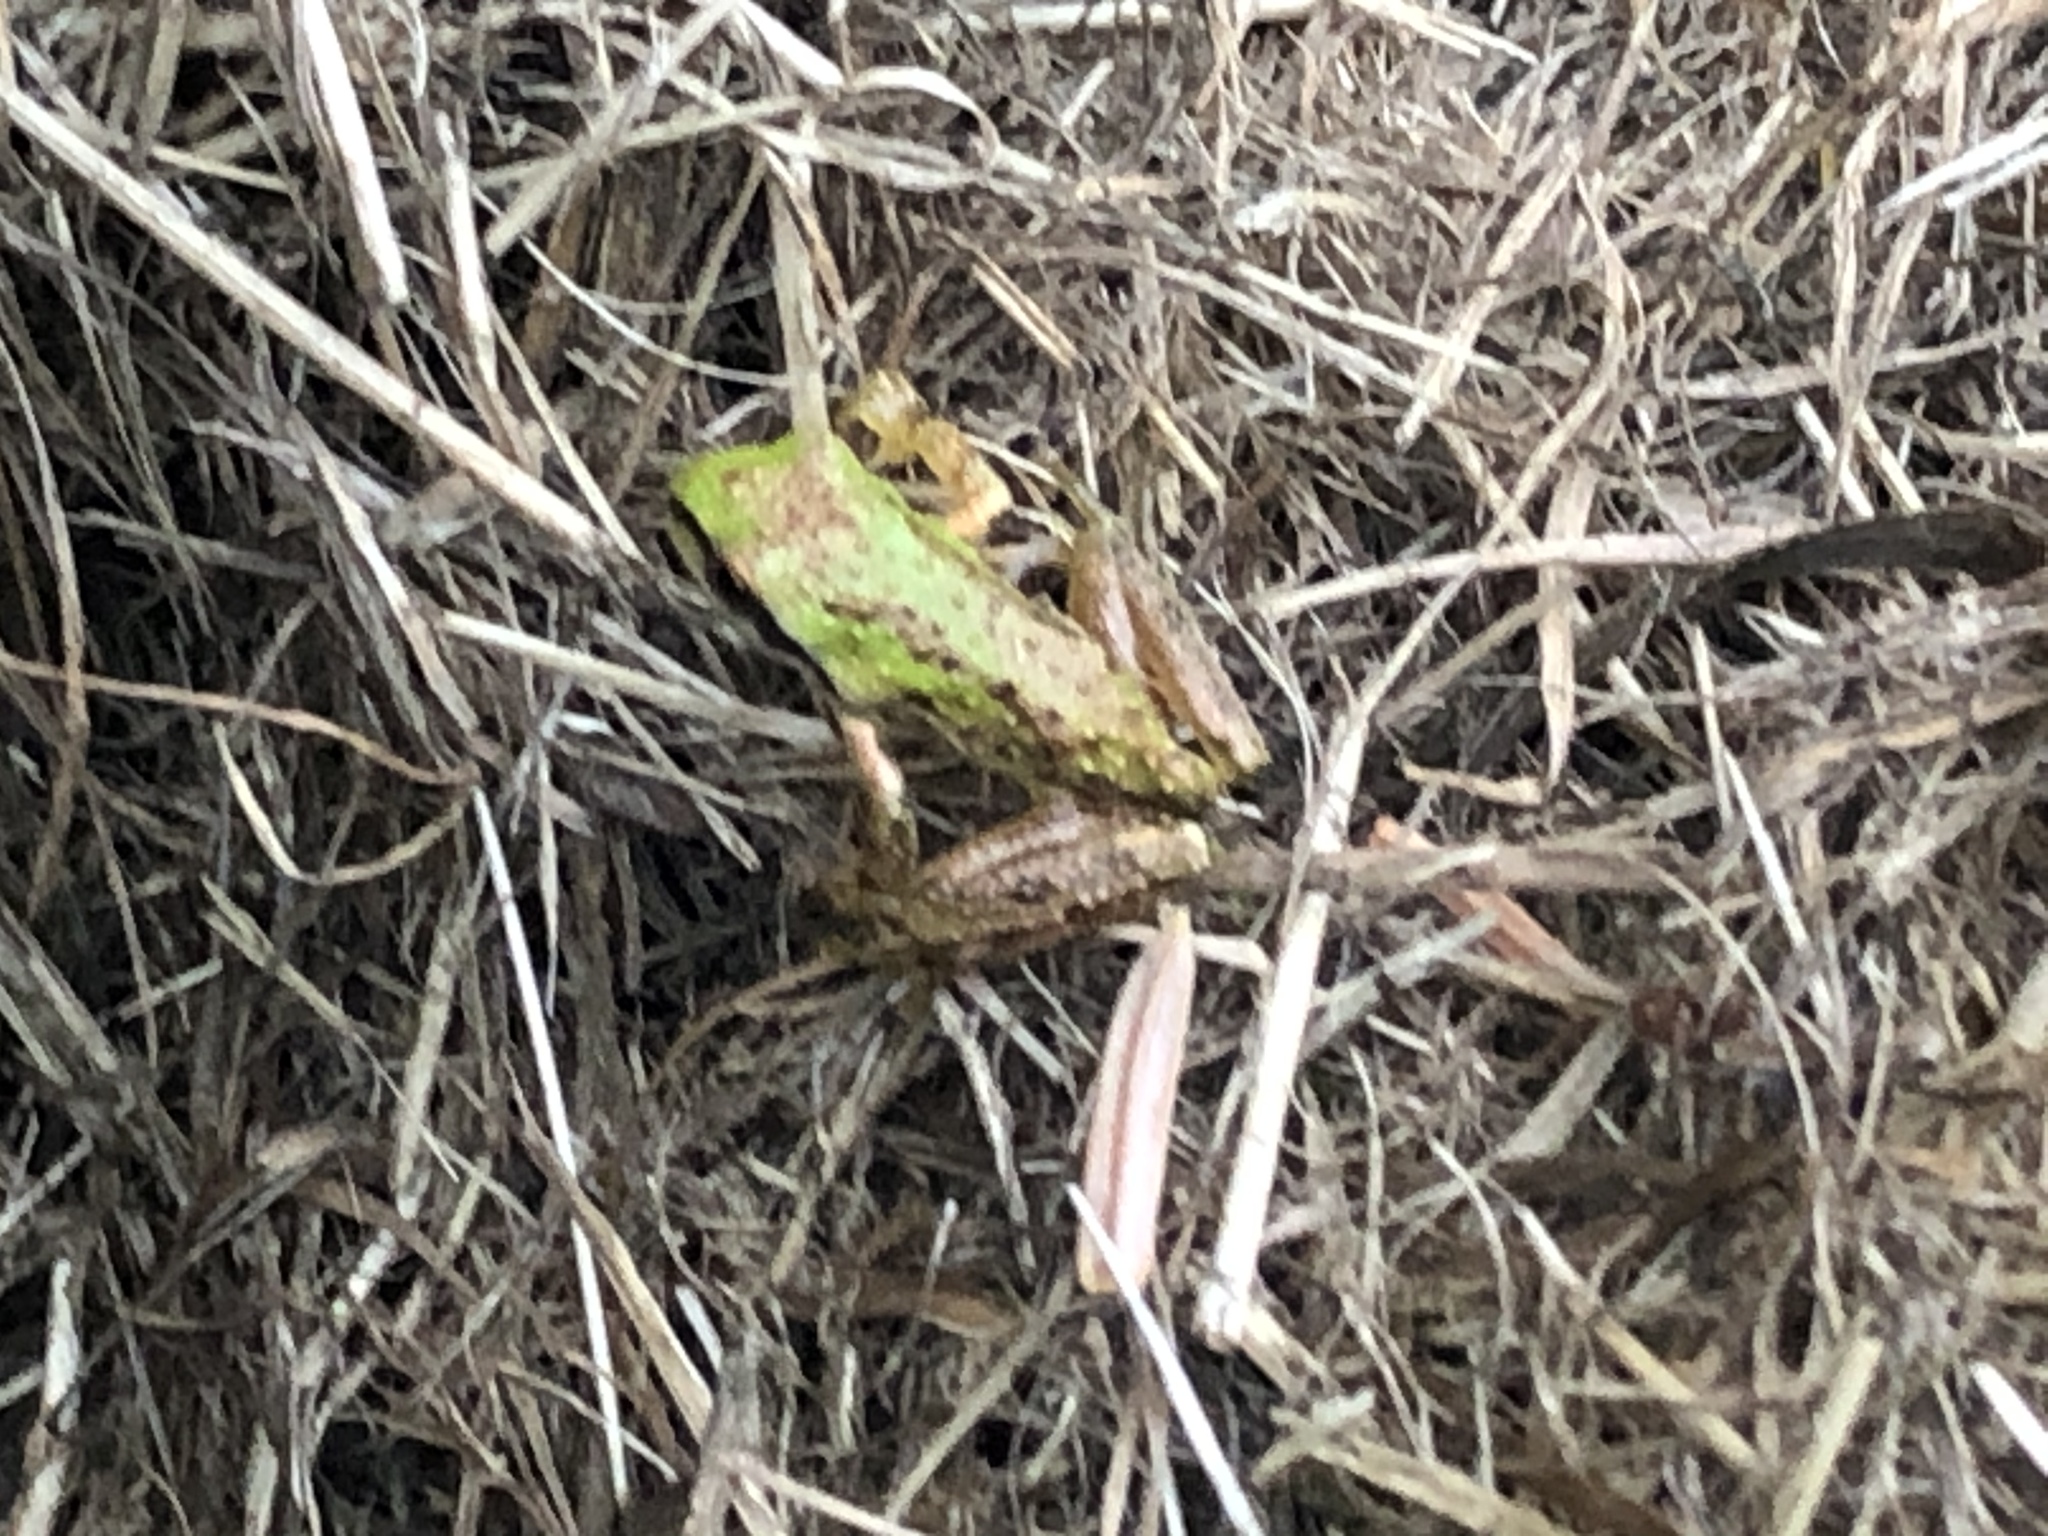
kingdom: Animalia
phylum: Chordata
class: Amphibia
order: Anura
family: Hylidae
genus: Pseudacris
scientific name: Pseudacris regilla
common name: Pacific chorus frog
